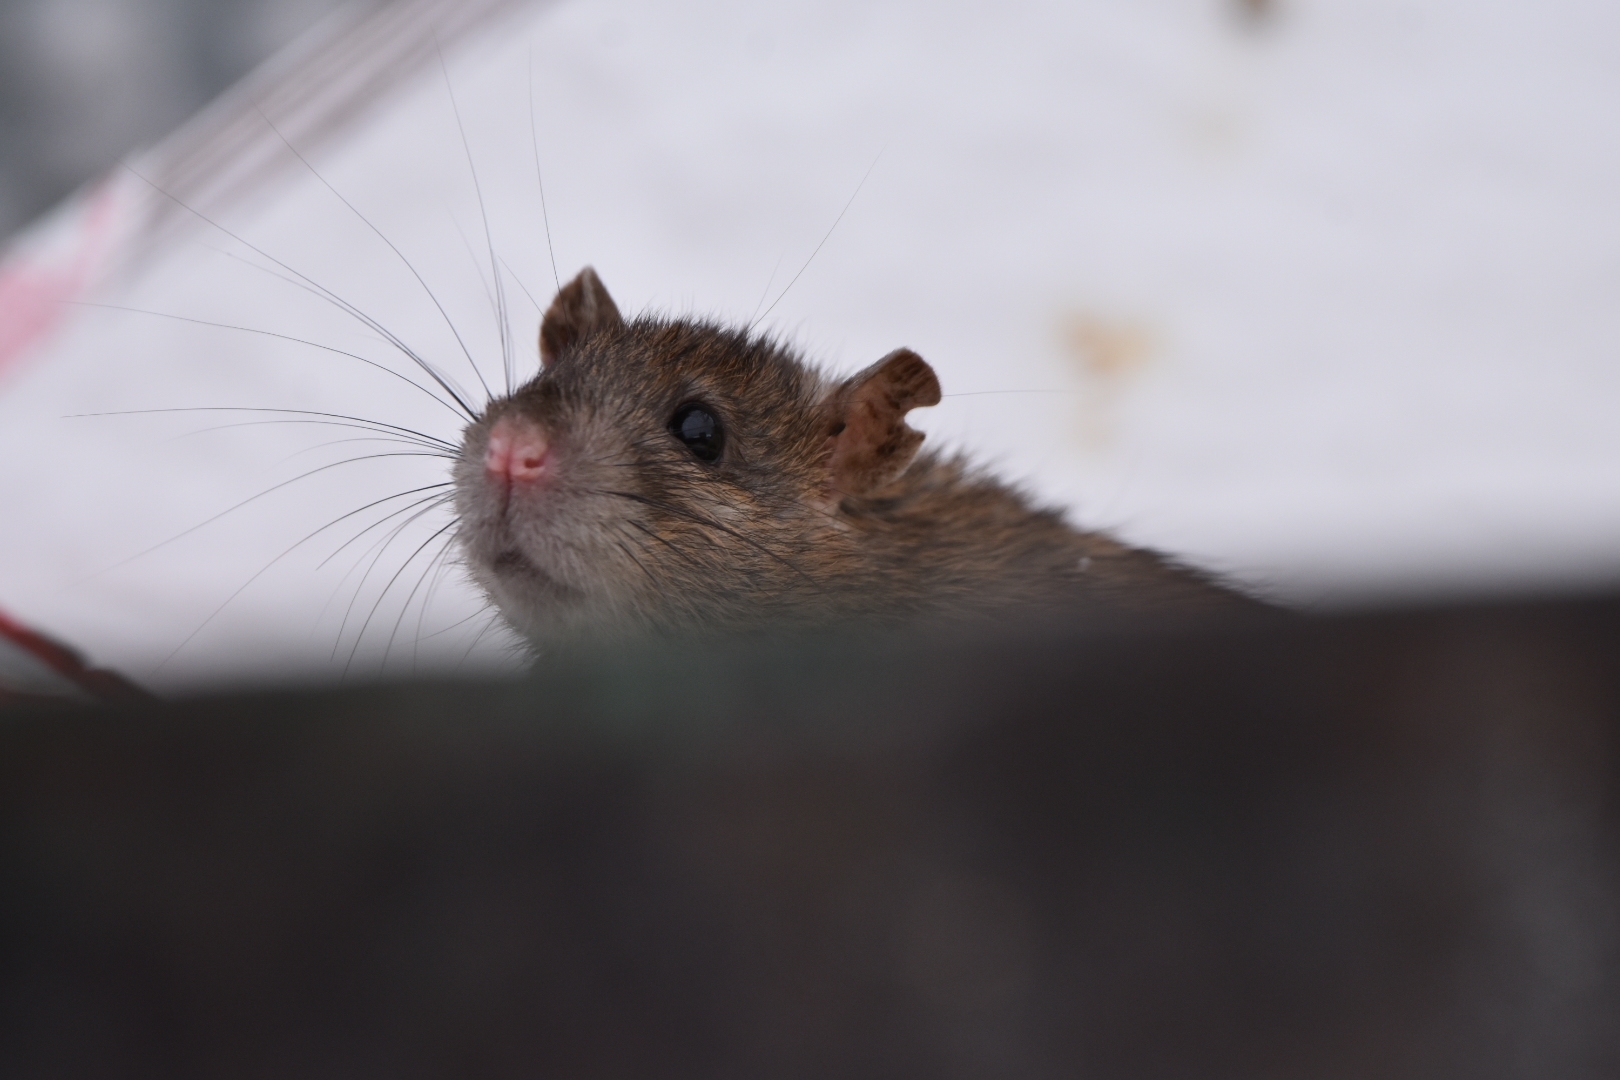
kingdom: Animalia
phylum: Chordata
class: Mammalia
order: Rodentia
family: Muridae
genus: Rattus
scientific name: Rattus norvegicus
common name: Brown rat
